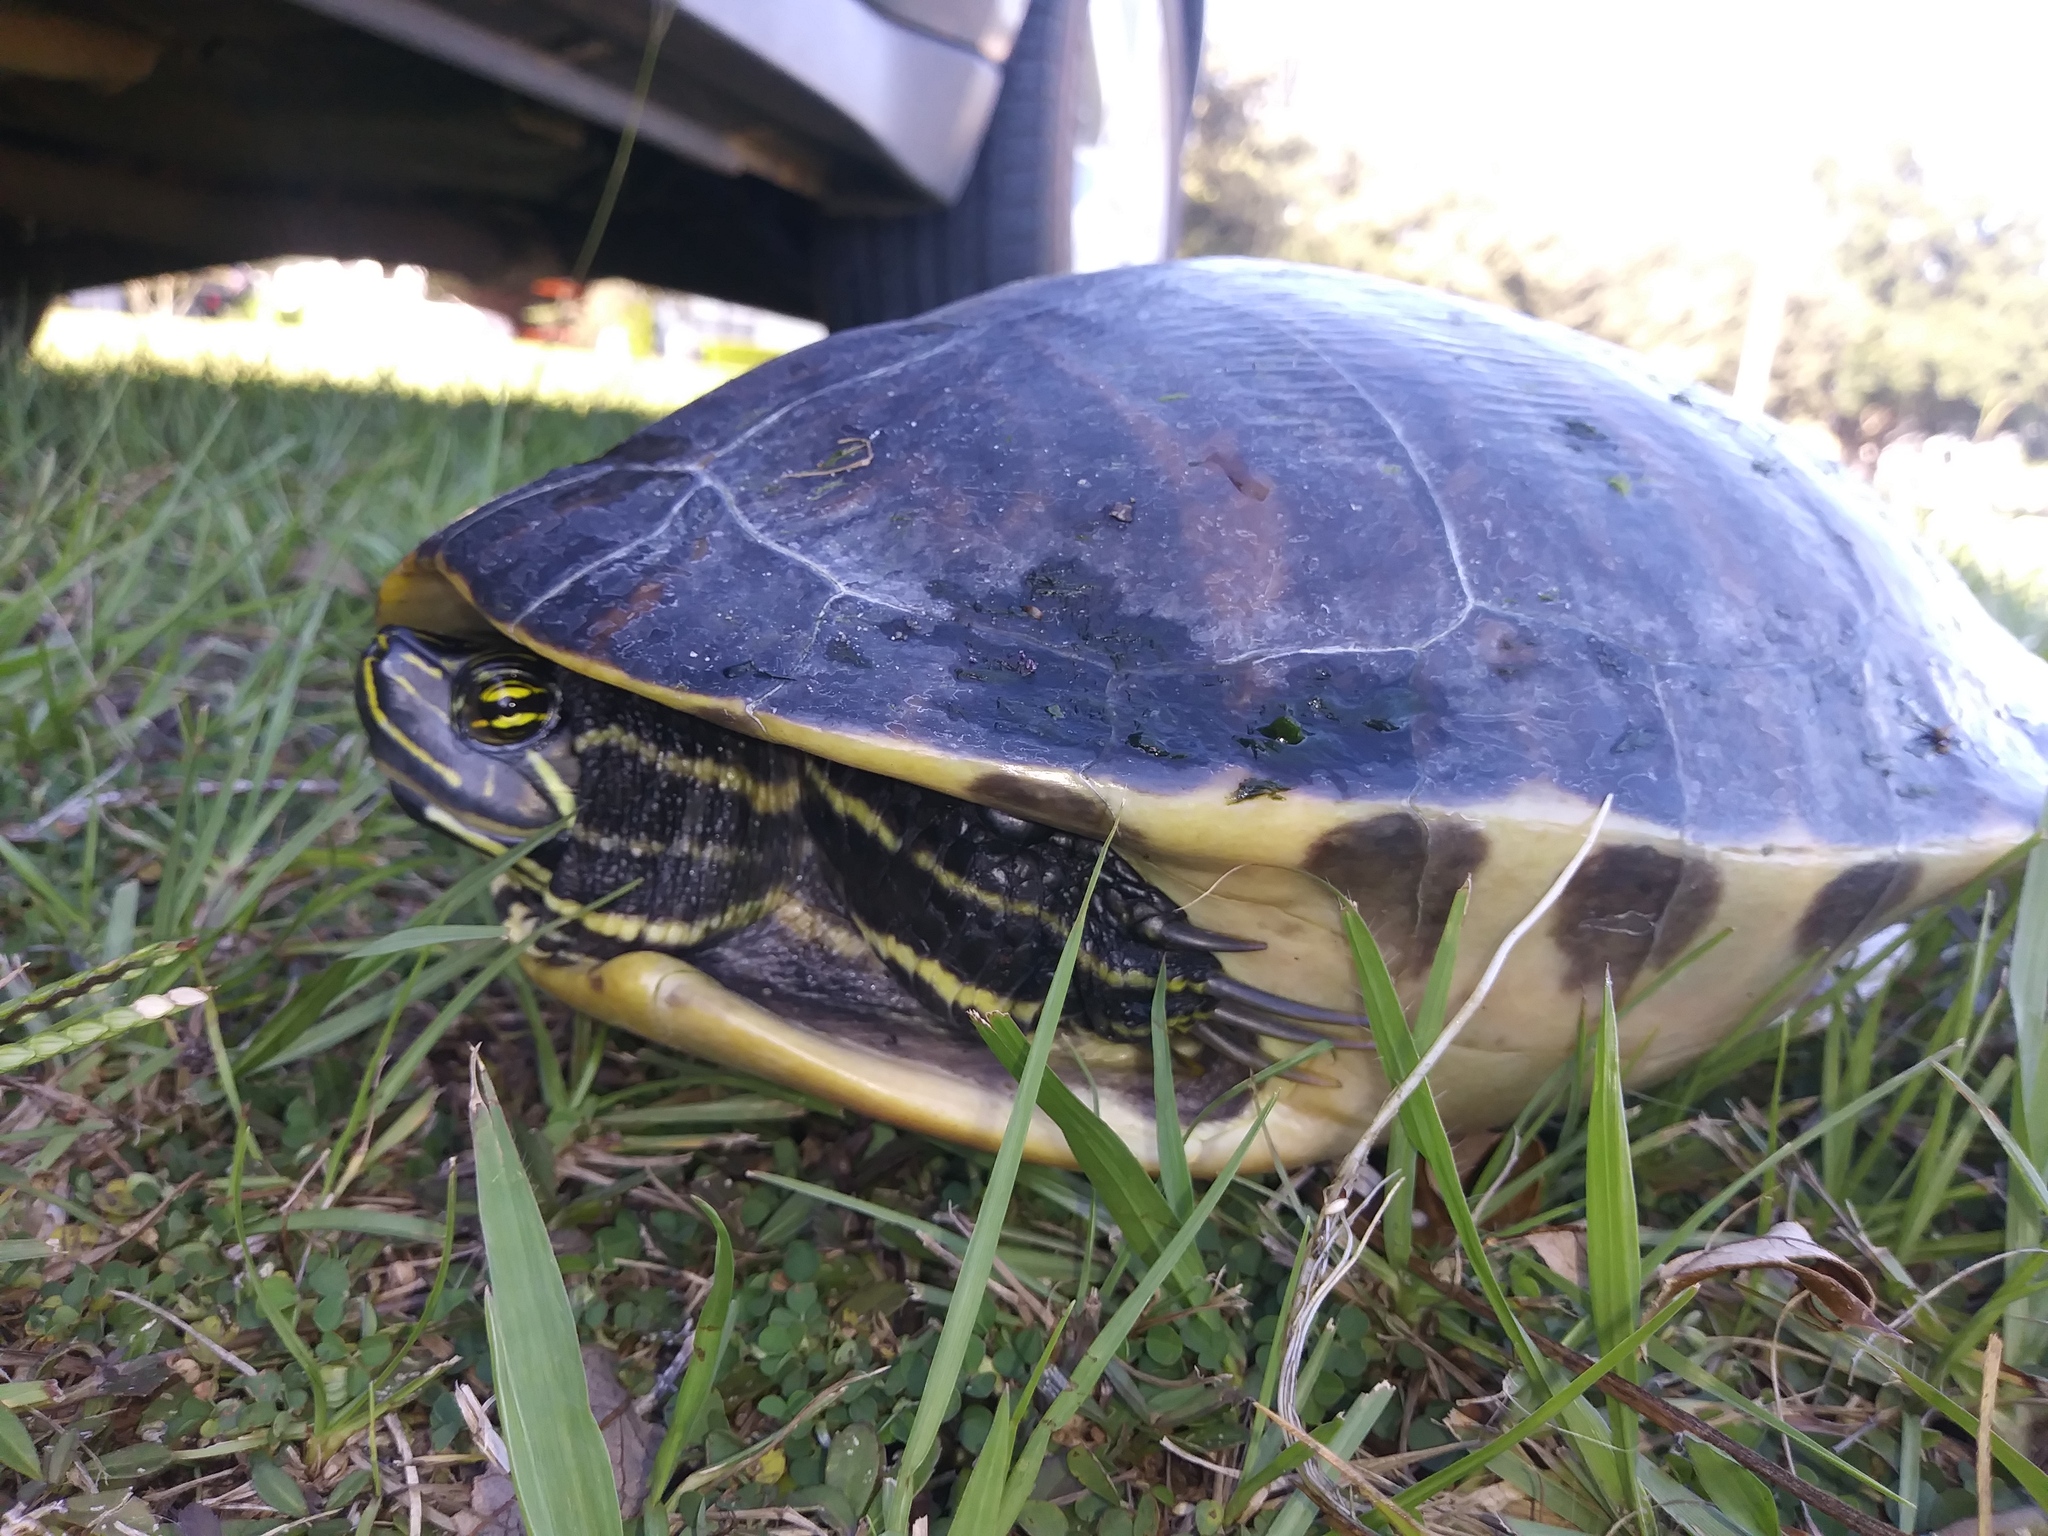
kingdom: Animalia
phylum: Chordata
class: Testudines
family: Emydidae
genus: Pseudemys
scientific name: Pseudemys peninsularis
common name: Peninsula cooter
